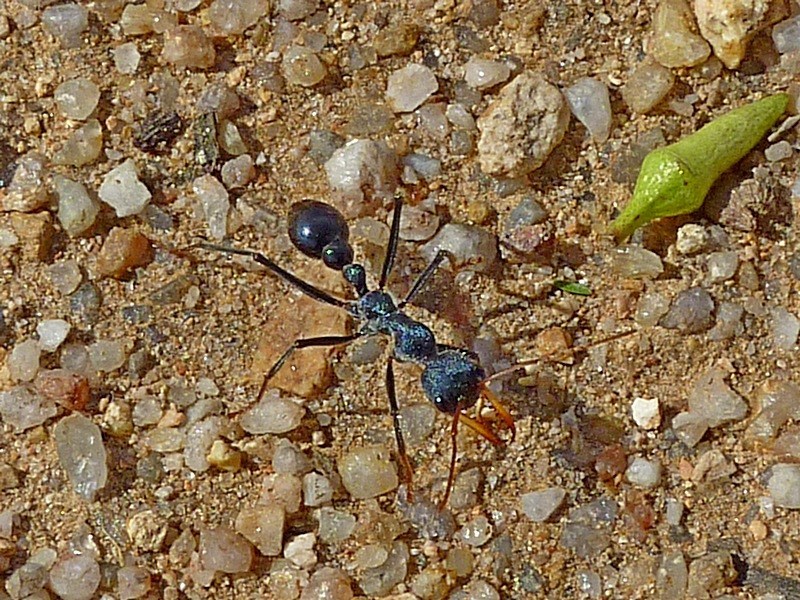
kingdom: Animalia
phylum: Arthropoda
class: Insecta
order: Hymenoptera
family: Formicidae
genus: Myrmecia
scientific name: Myrmecia tarsata
